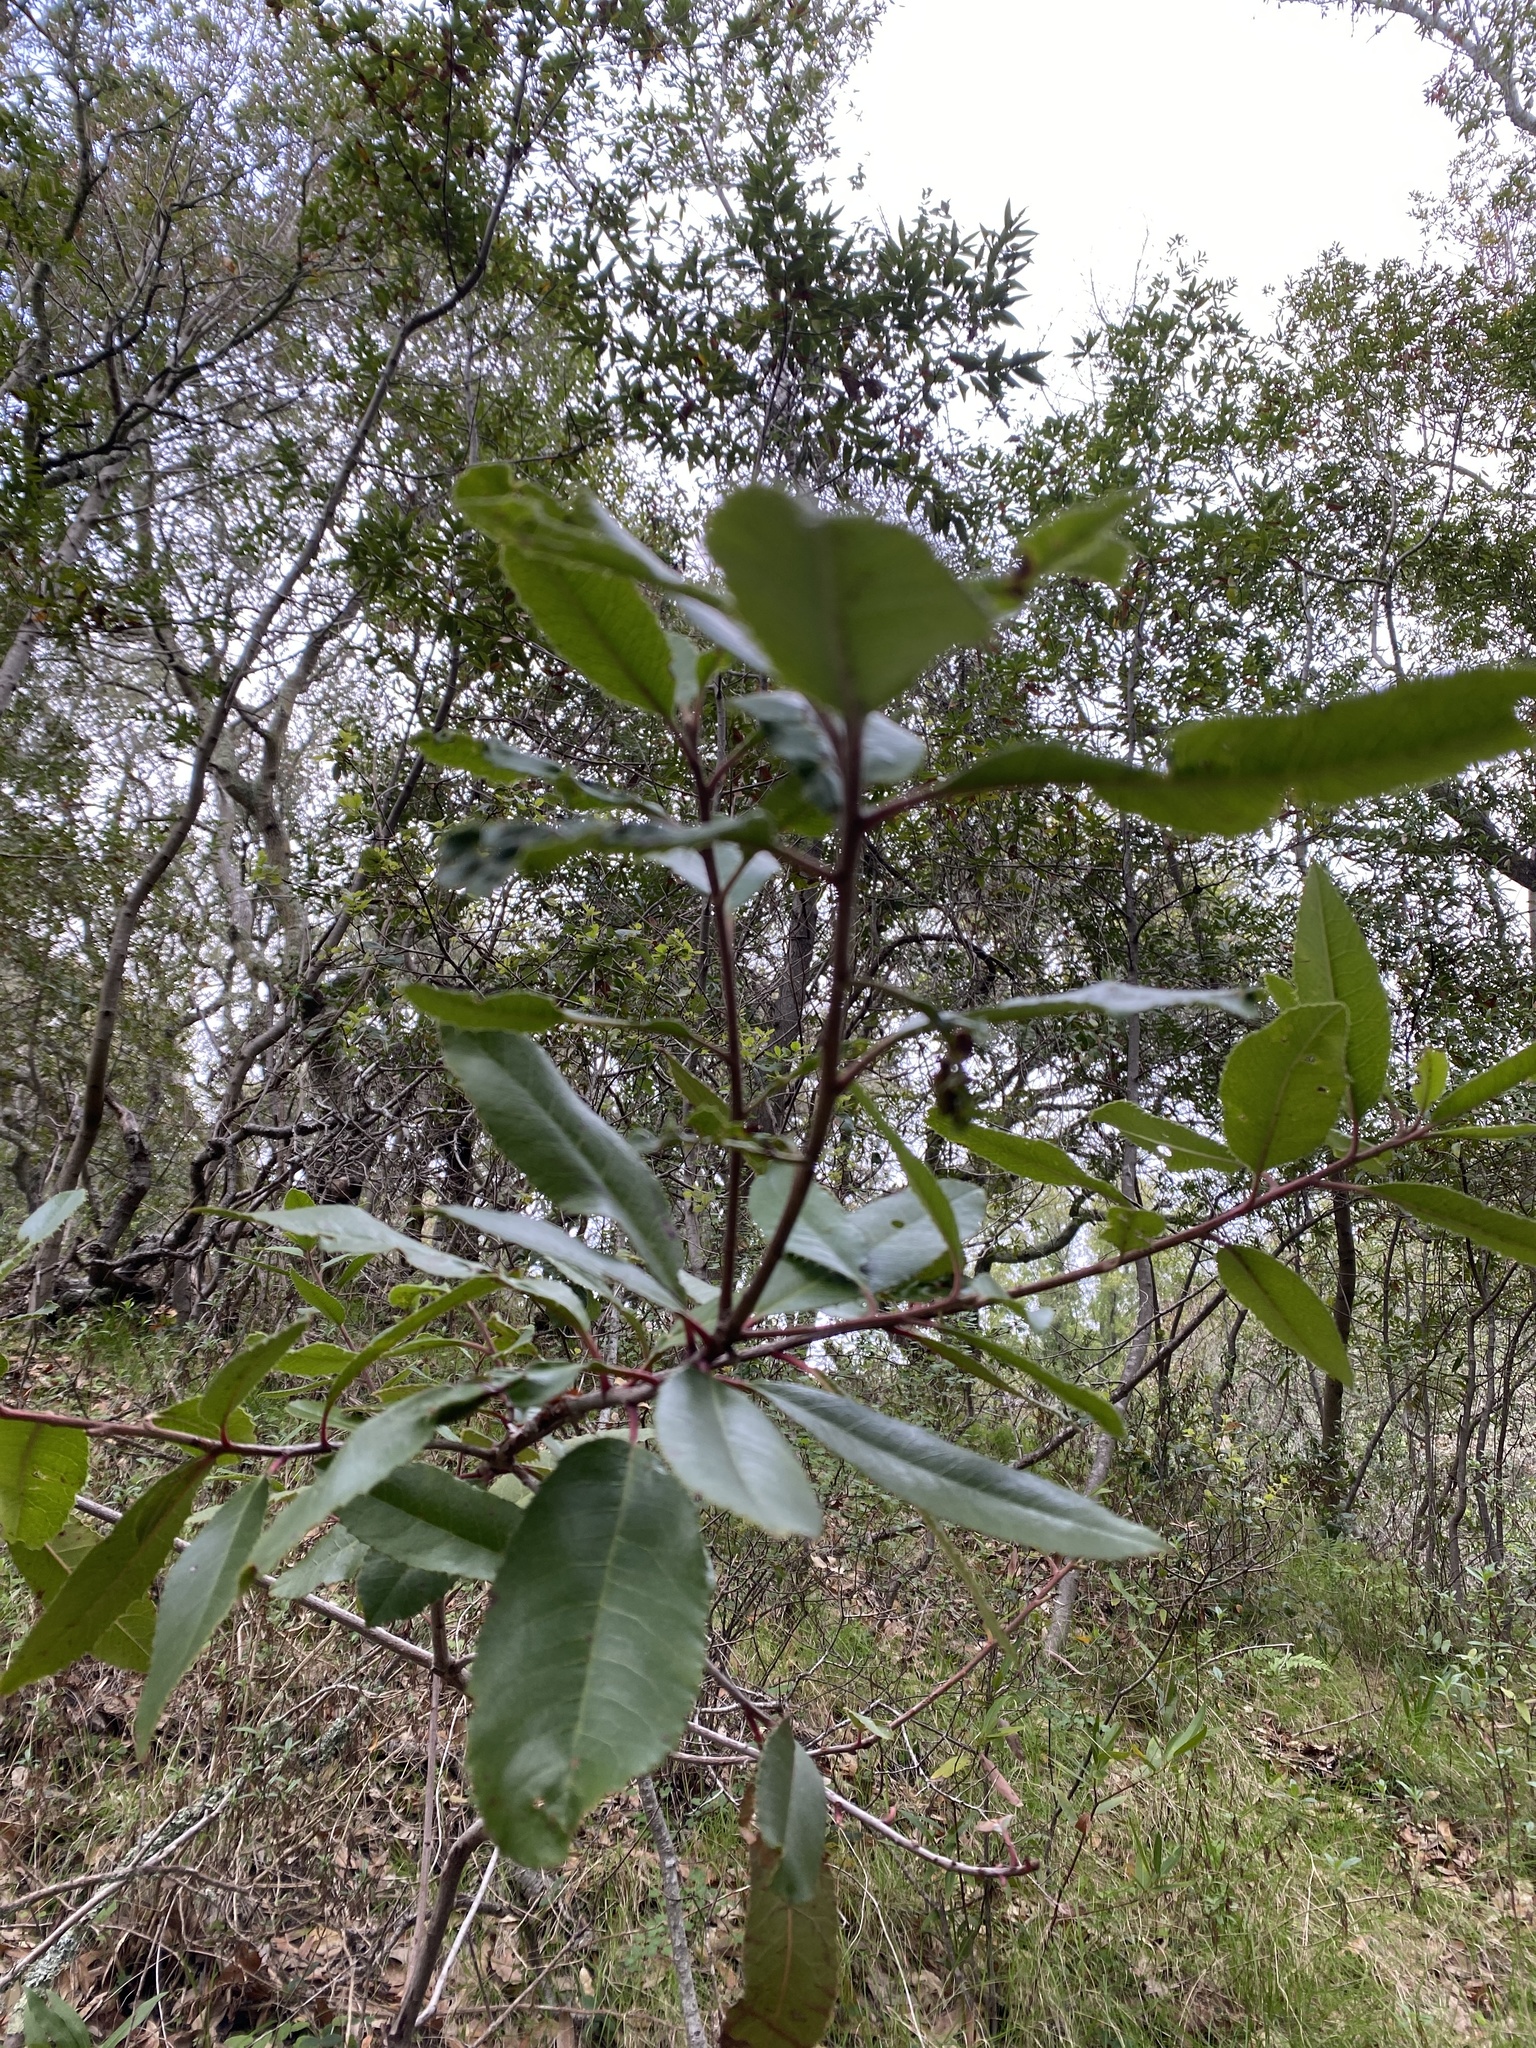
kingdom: Plantae
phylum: Tracheophyta
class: Magnoliopsida
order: Rosales
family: Rosaceae
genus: Heteromeles
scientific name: Heteromeles arbutifolia
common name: California-holly
